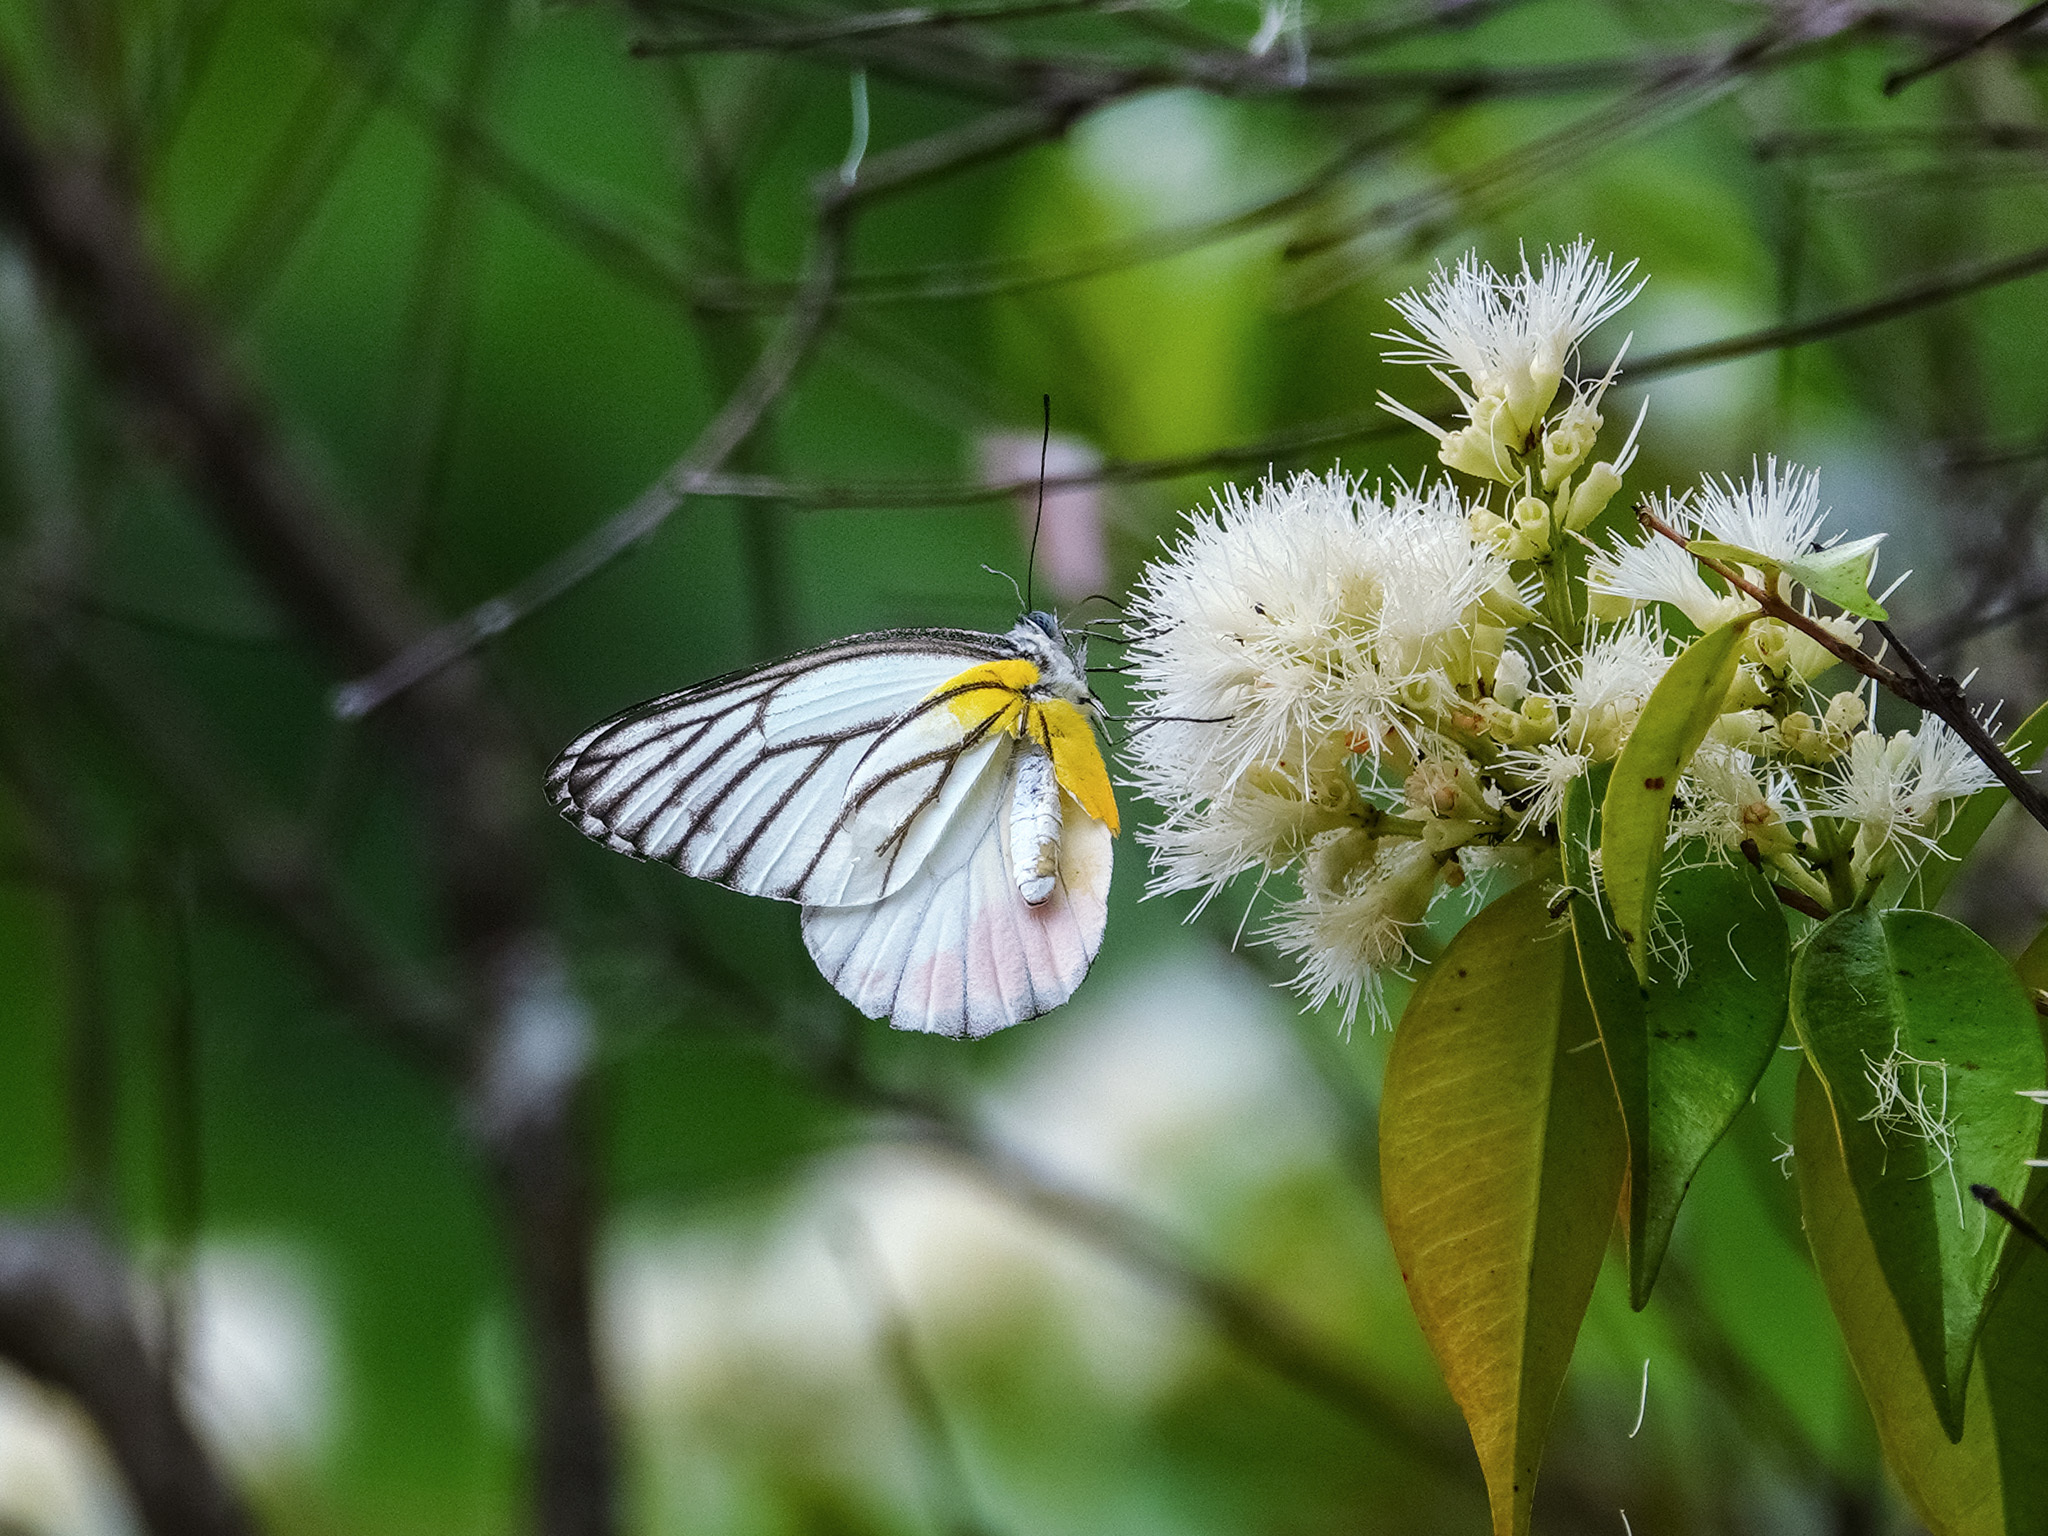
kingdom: Animalia
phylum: Arthropoda
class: Insecta
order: Lepidoptera
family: Pieridae
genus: Delias
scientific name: Delias hyparete
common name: Painted jezebel
